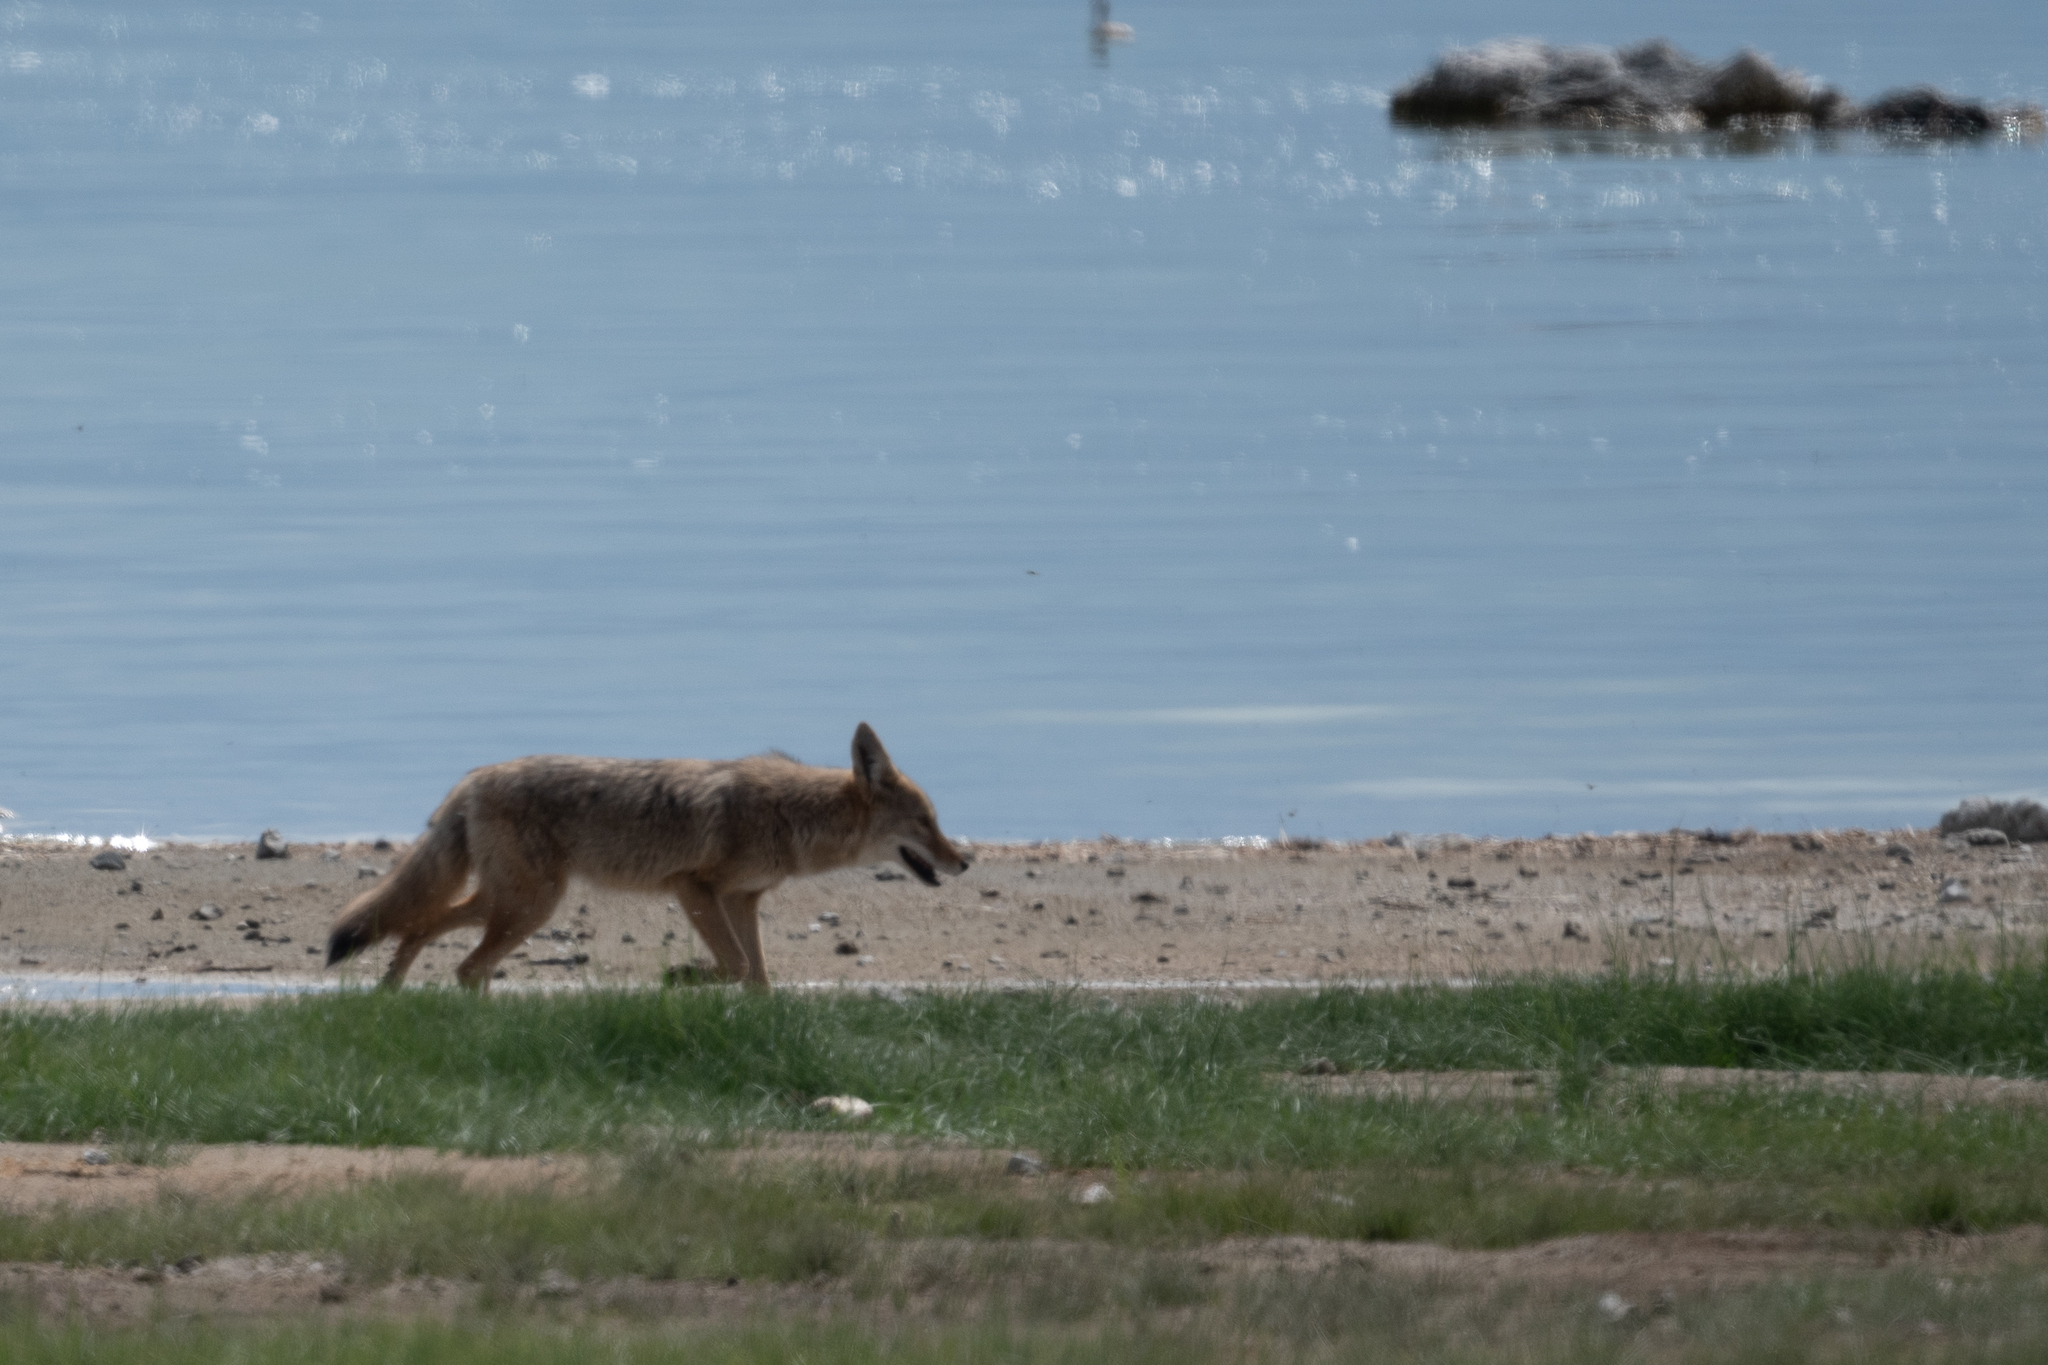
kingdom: Animalia
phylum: Chordata
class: Mammalia
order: Carnivora
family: Canidae
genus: Canis
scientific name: Canis latrans
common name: Coyote
